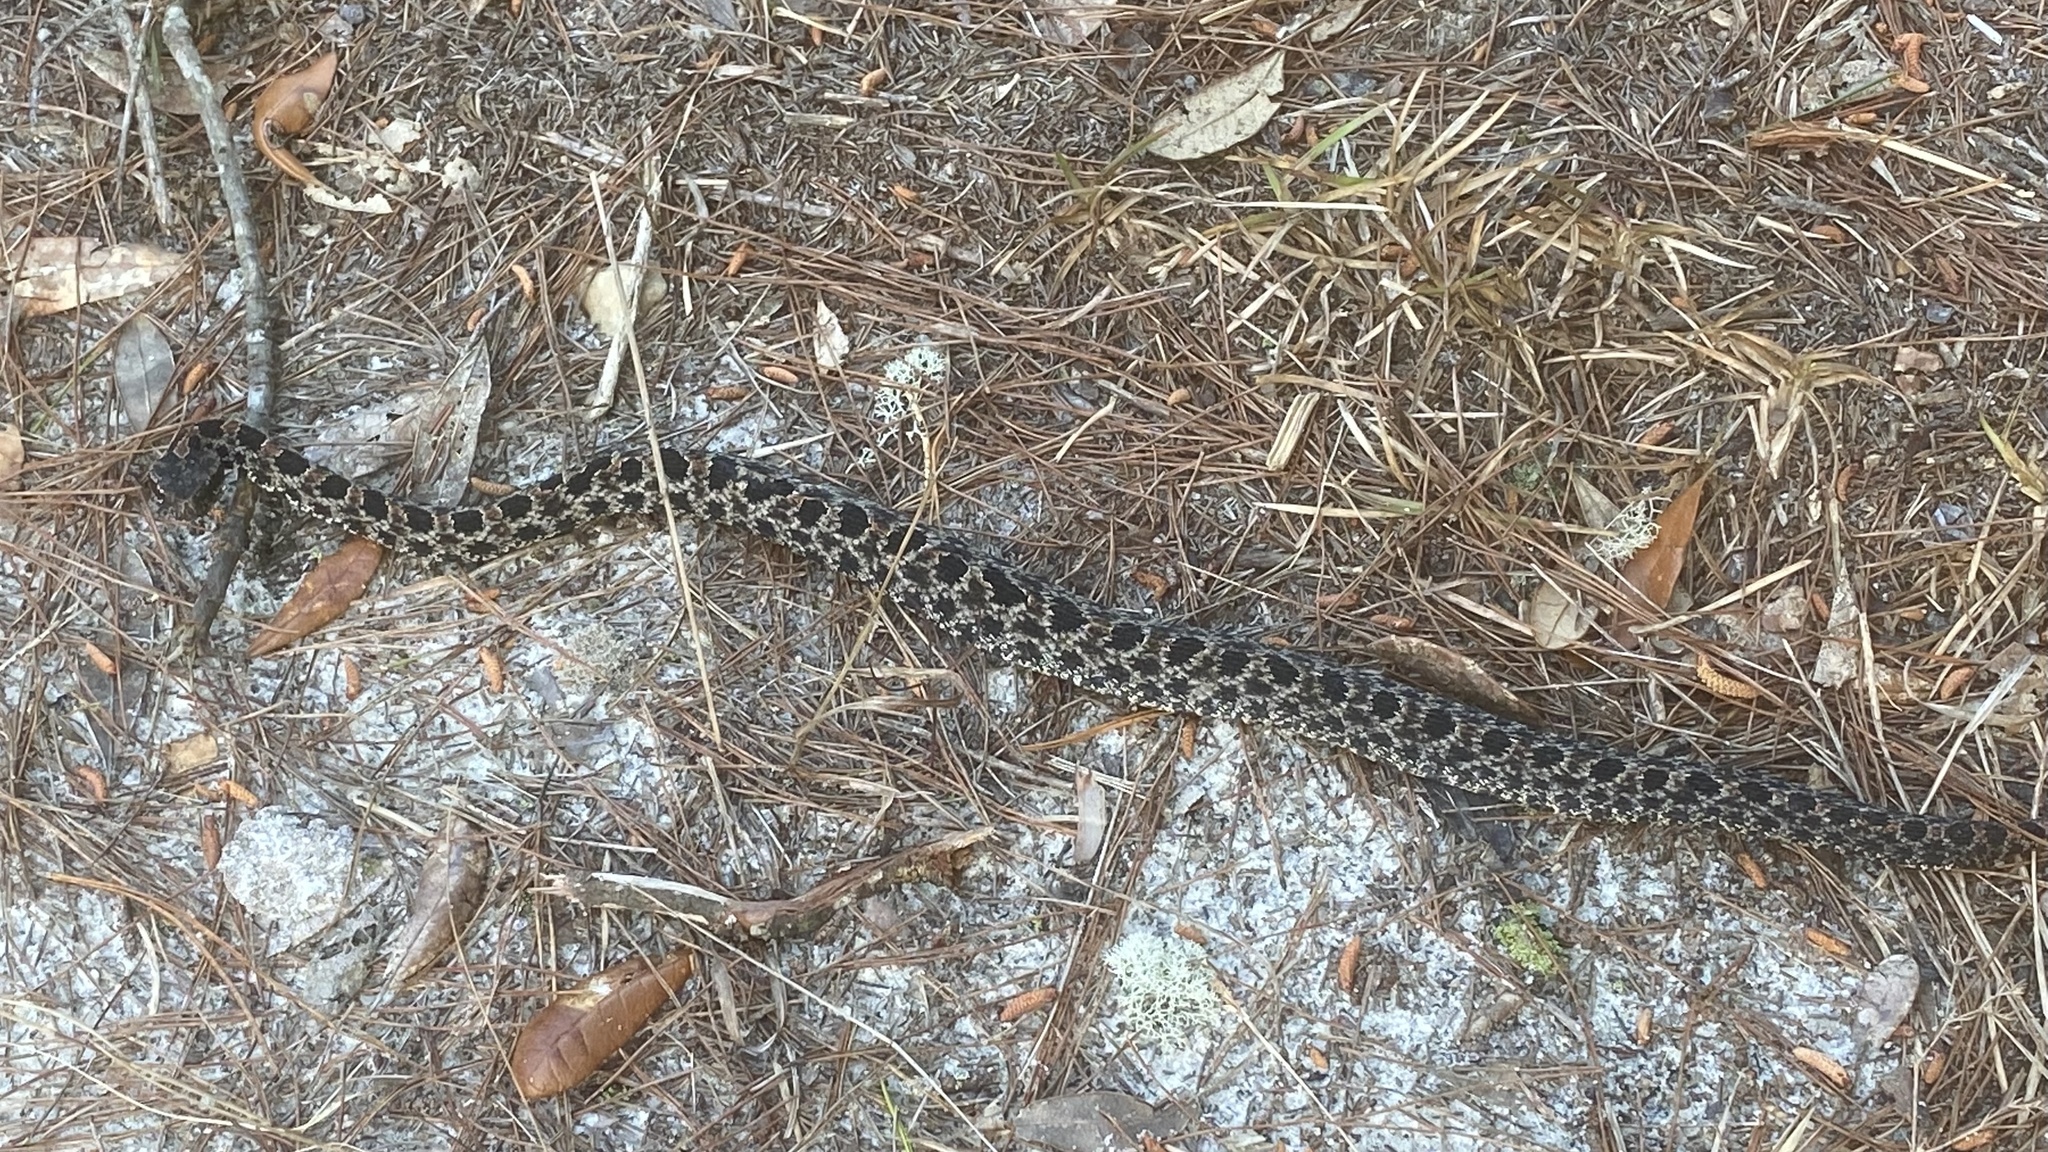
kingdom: Animalia
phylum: Chordata
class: Squamata
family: Viperidae
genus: Sistrurus
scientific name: Sistrurus miliarius
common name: Pygmy rattlesnake
